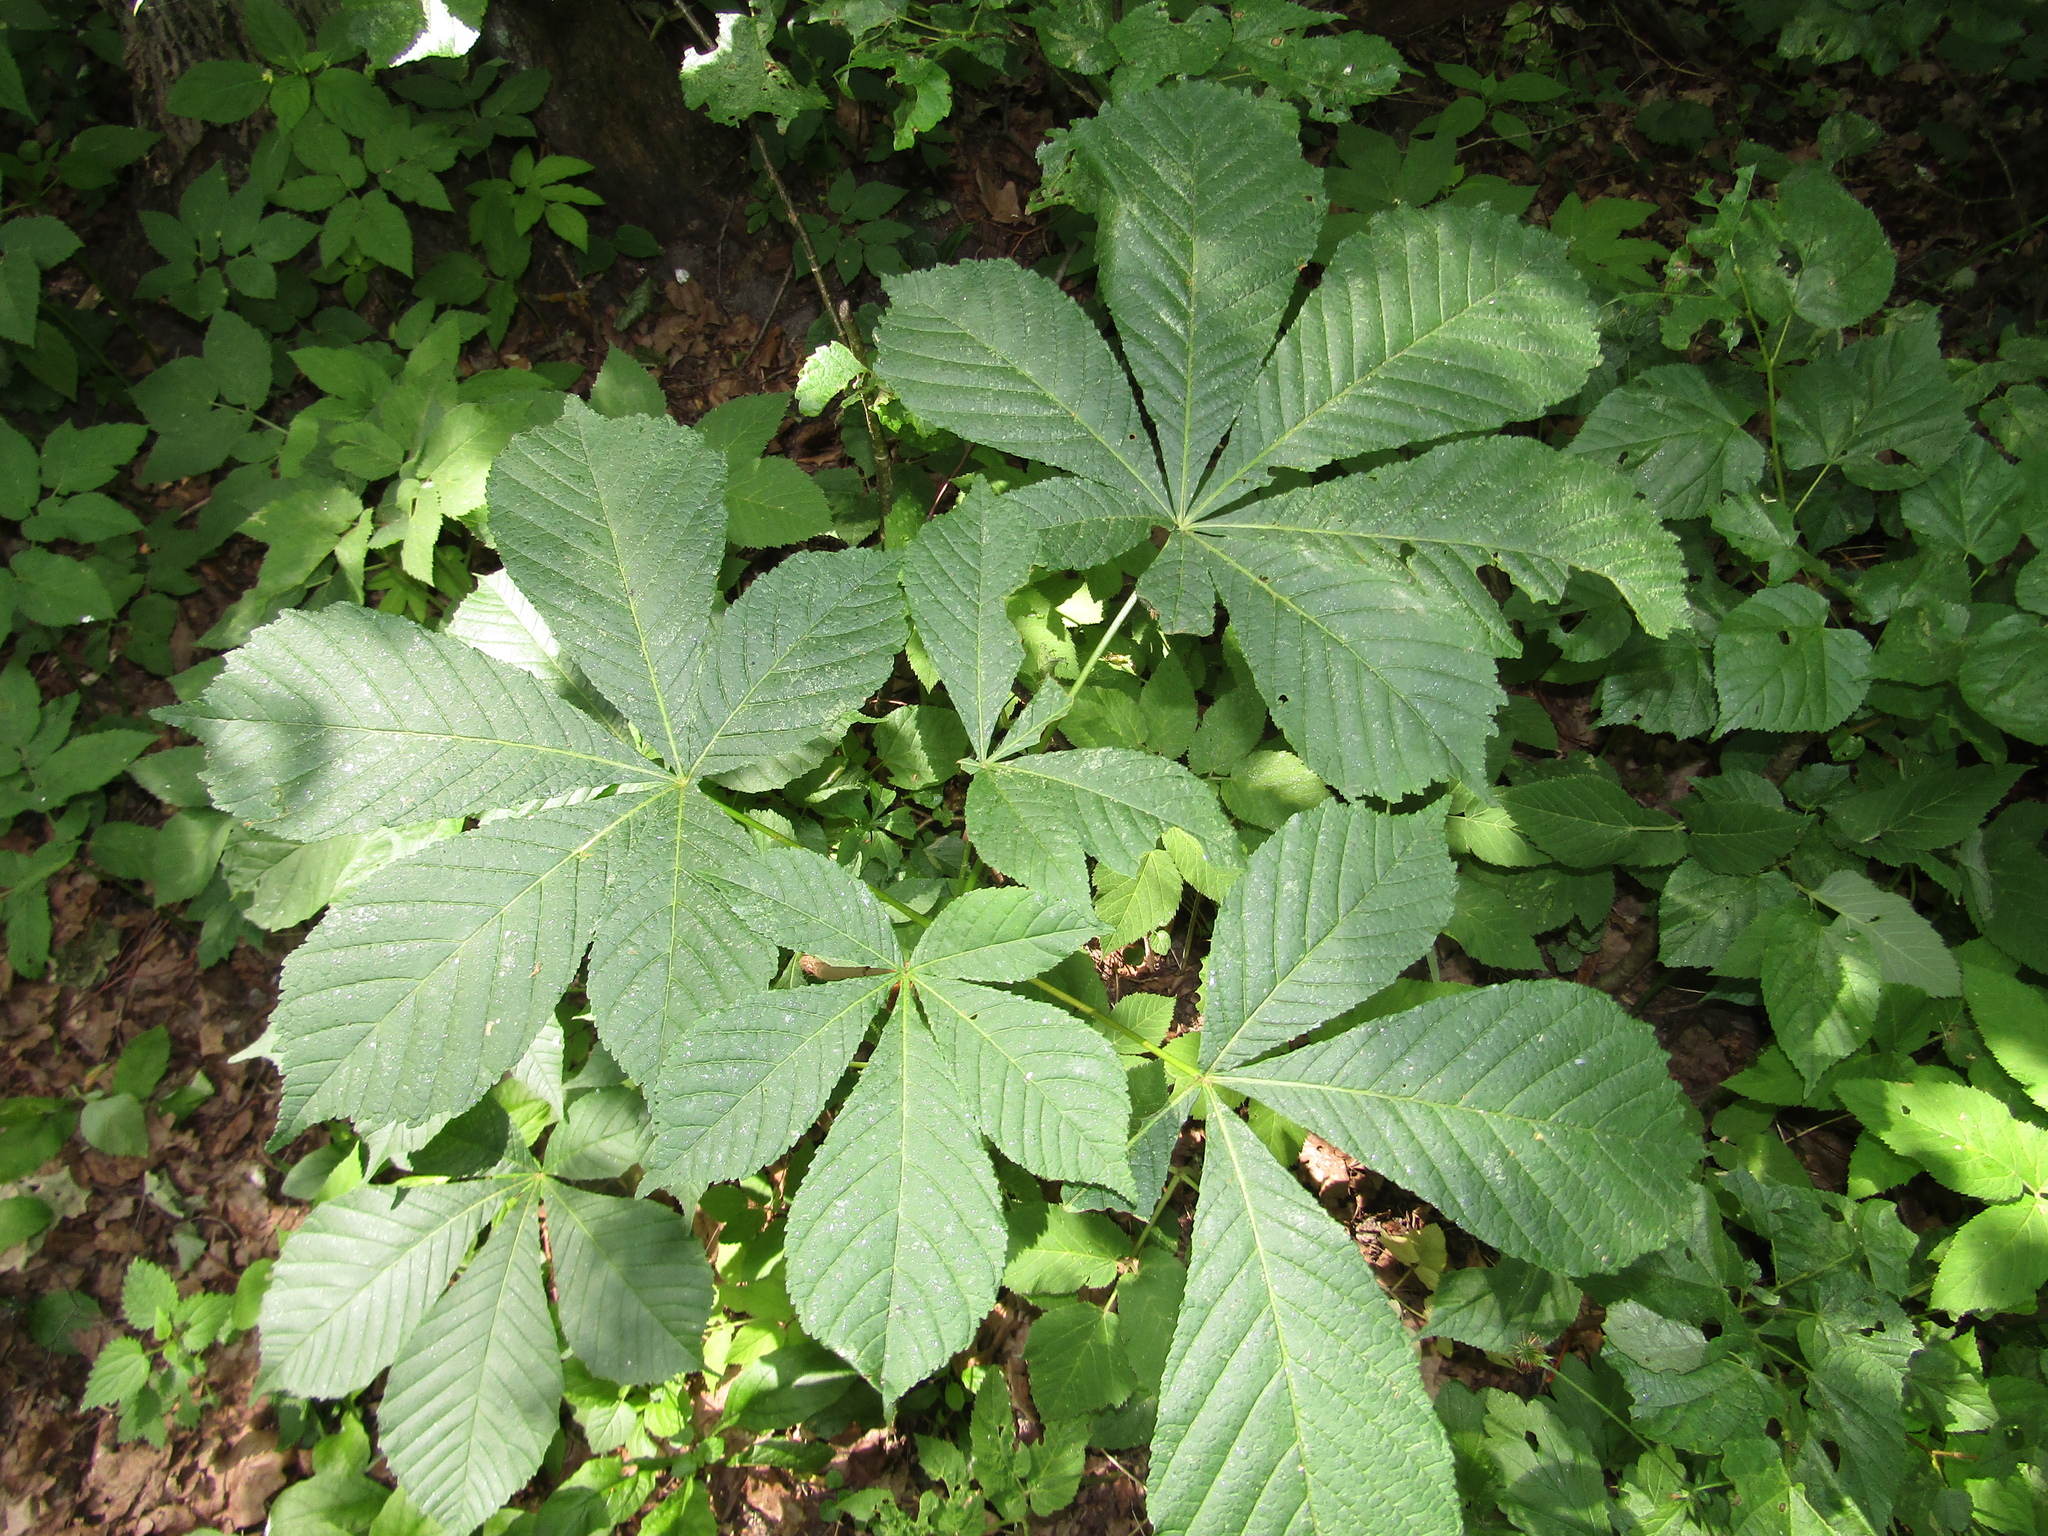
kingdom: Plantae
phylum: Tracheophyta
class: Magnoliopsida
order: Sapindales
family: Sapindaceae
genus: Aesculus
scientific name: Aesculus hippocastanum
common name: Horse-chestnut
